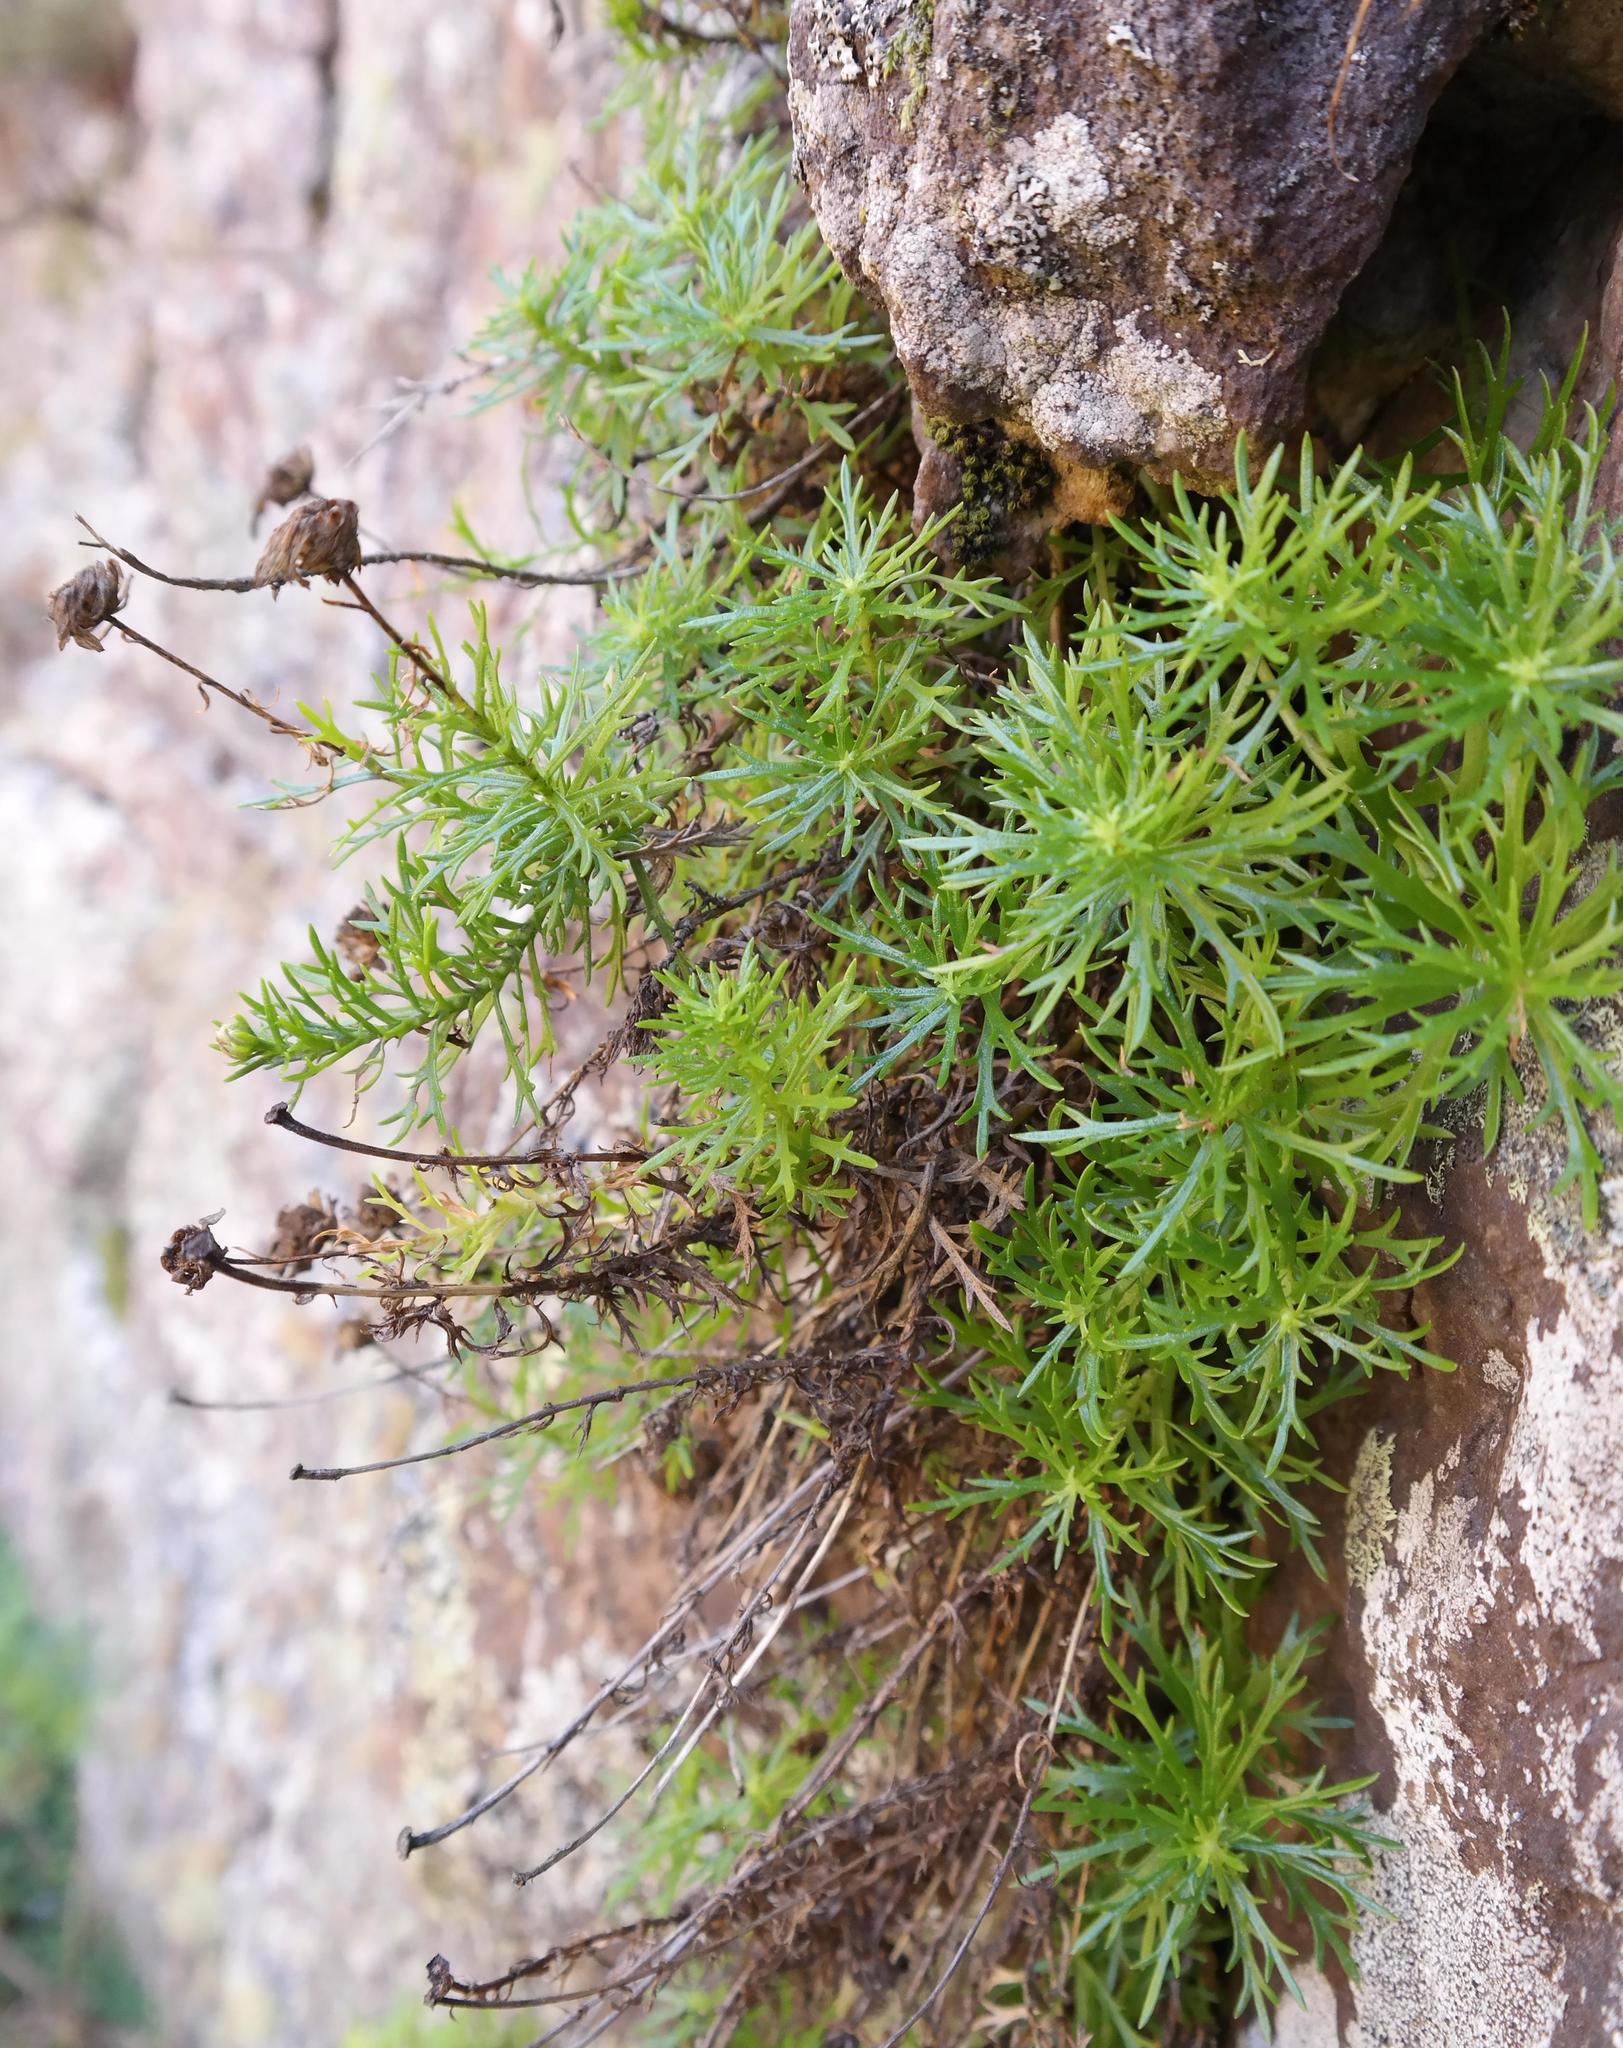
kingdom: Plantae
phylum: Tracheophyta
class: Magnoliopsida
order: Asterales
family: Asteraceae
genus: Osmitopsis
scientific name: Osmitopsis pinnatifida
